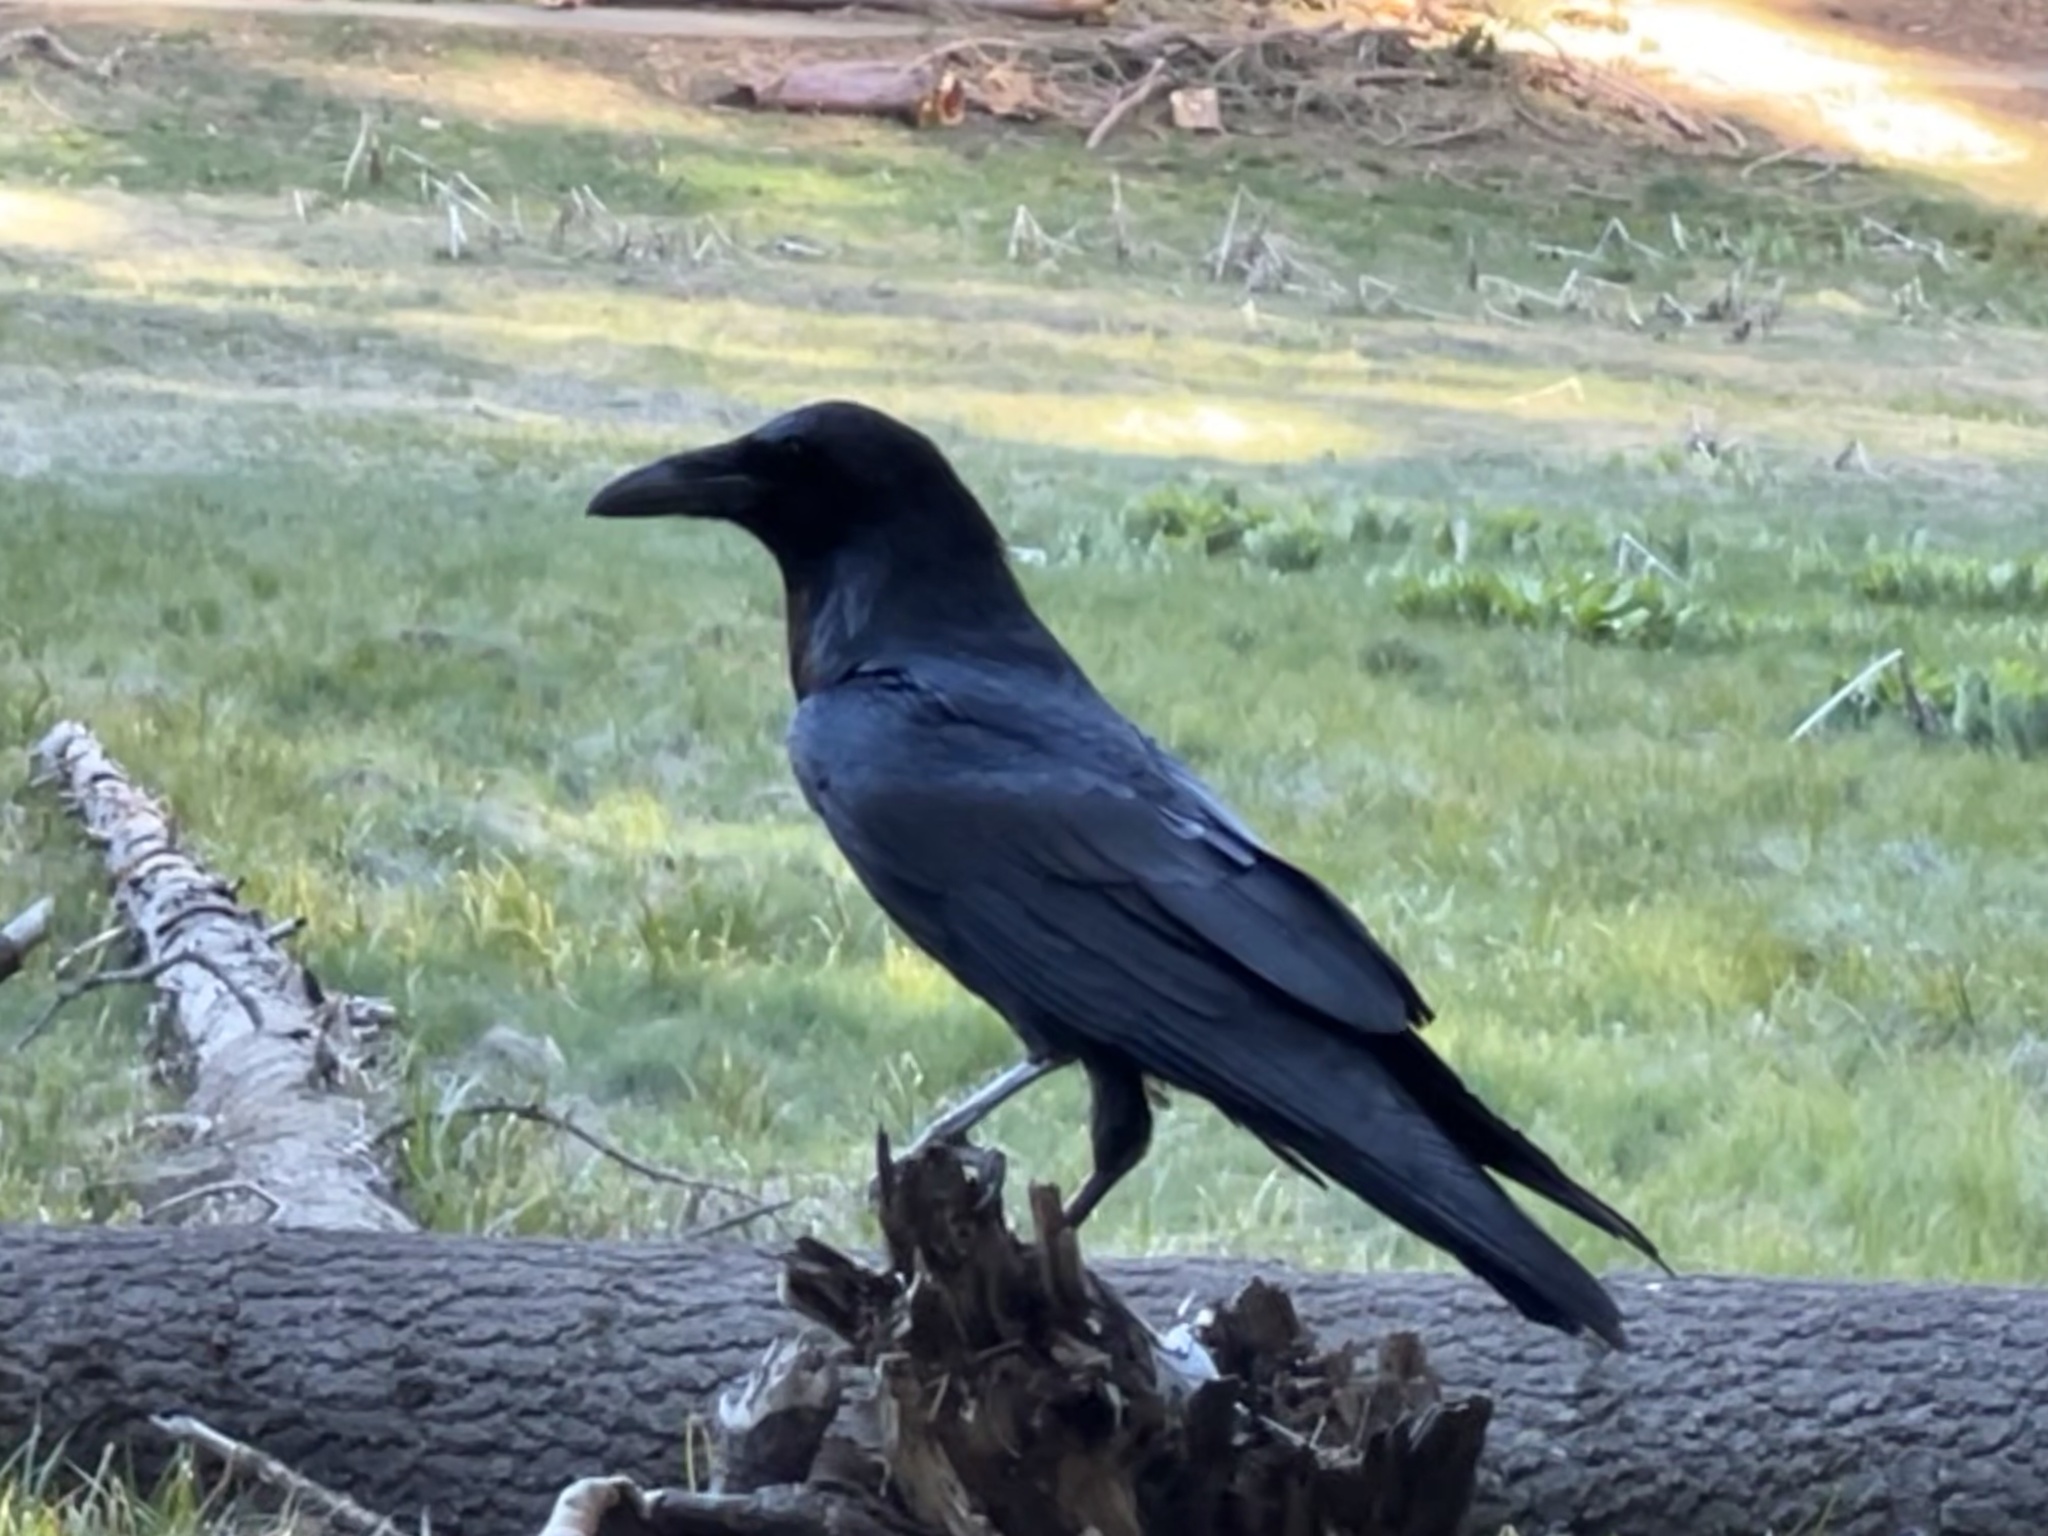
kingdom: Animalia
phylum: Chordata
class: Aves
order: Passeriformes
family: Corvidae
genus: Corvus
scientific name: Corvus corax
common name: Common raven
